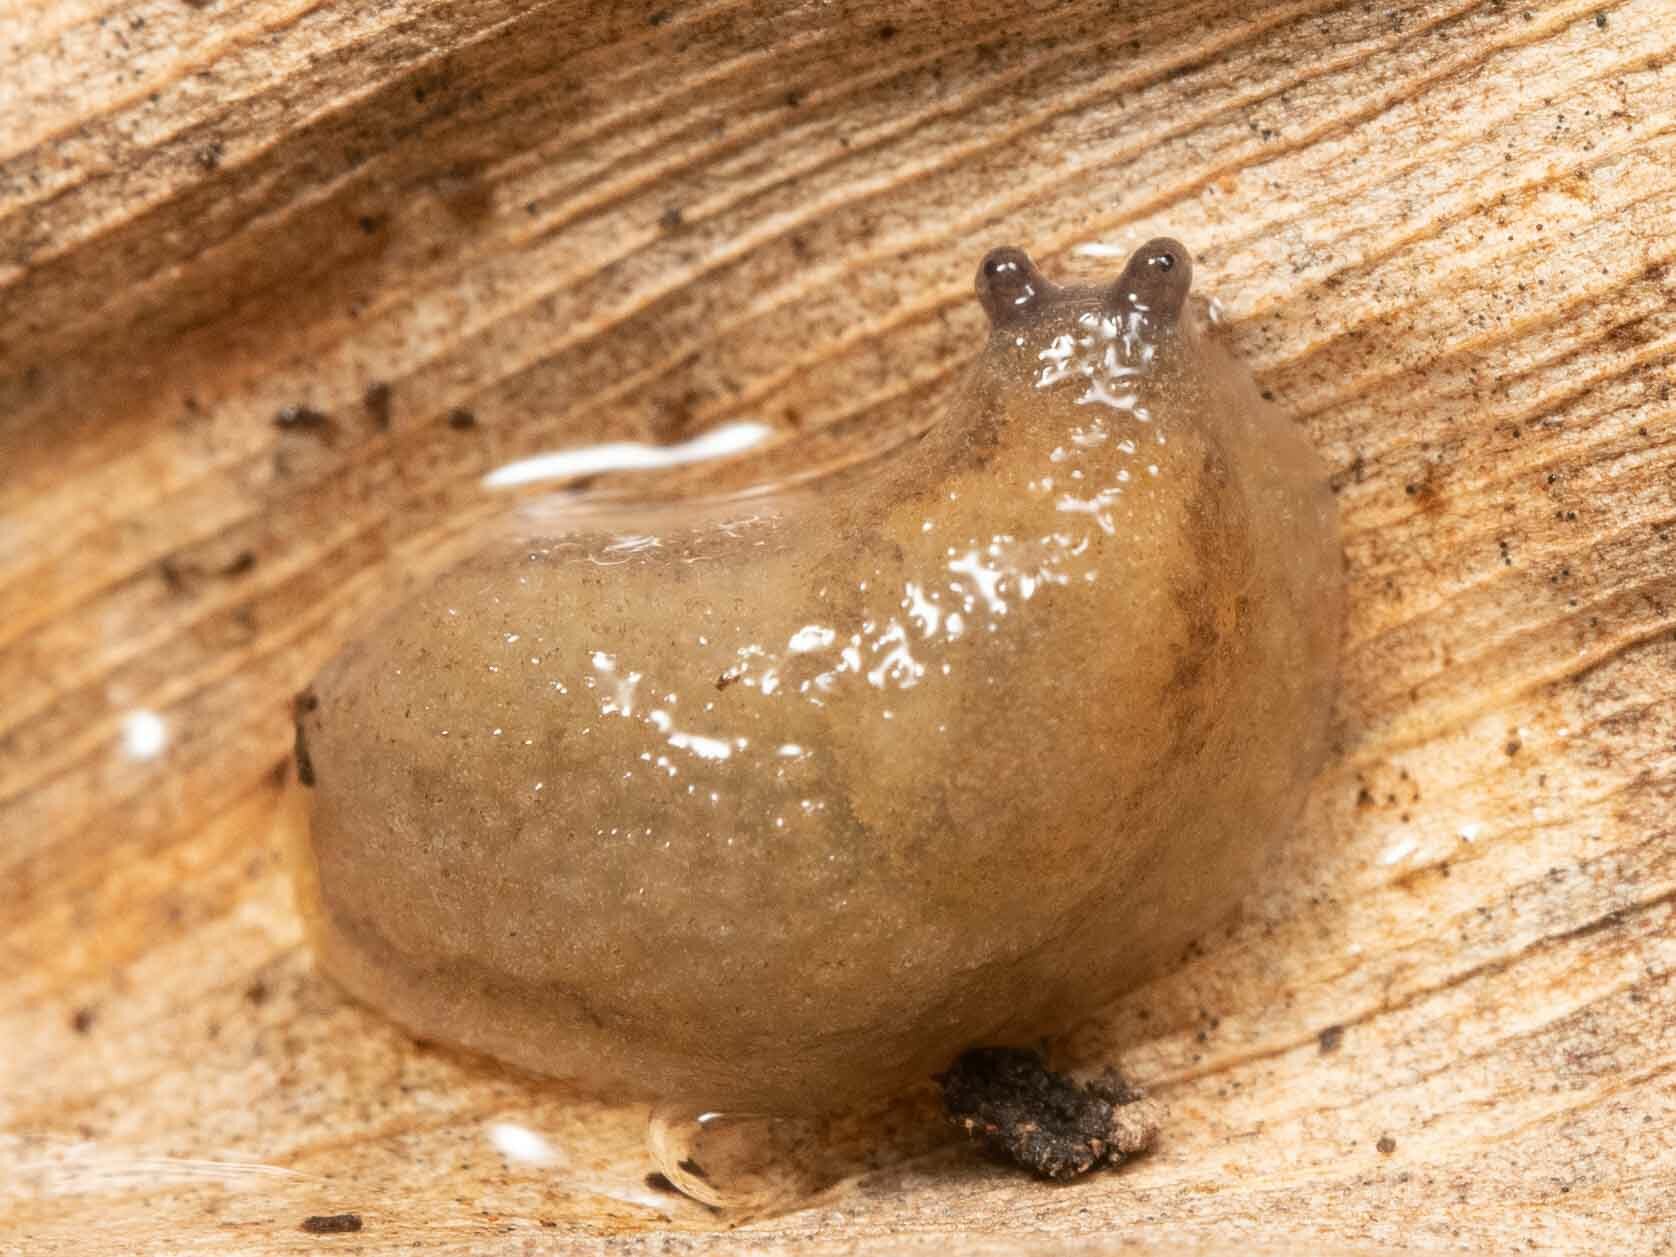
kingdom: Animalia
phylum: Mollusca
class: Gastropoda
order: Stylommatophora
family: Arionidae
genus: Arion
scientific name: Arion intermedius
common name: Hedgehog slug
